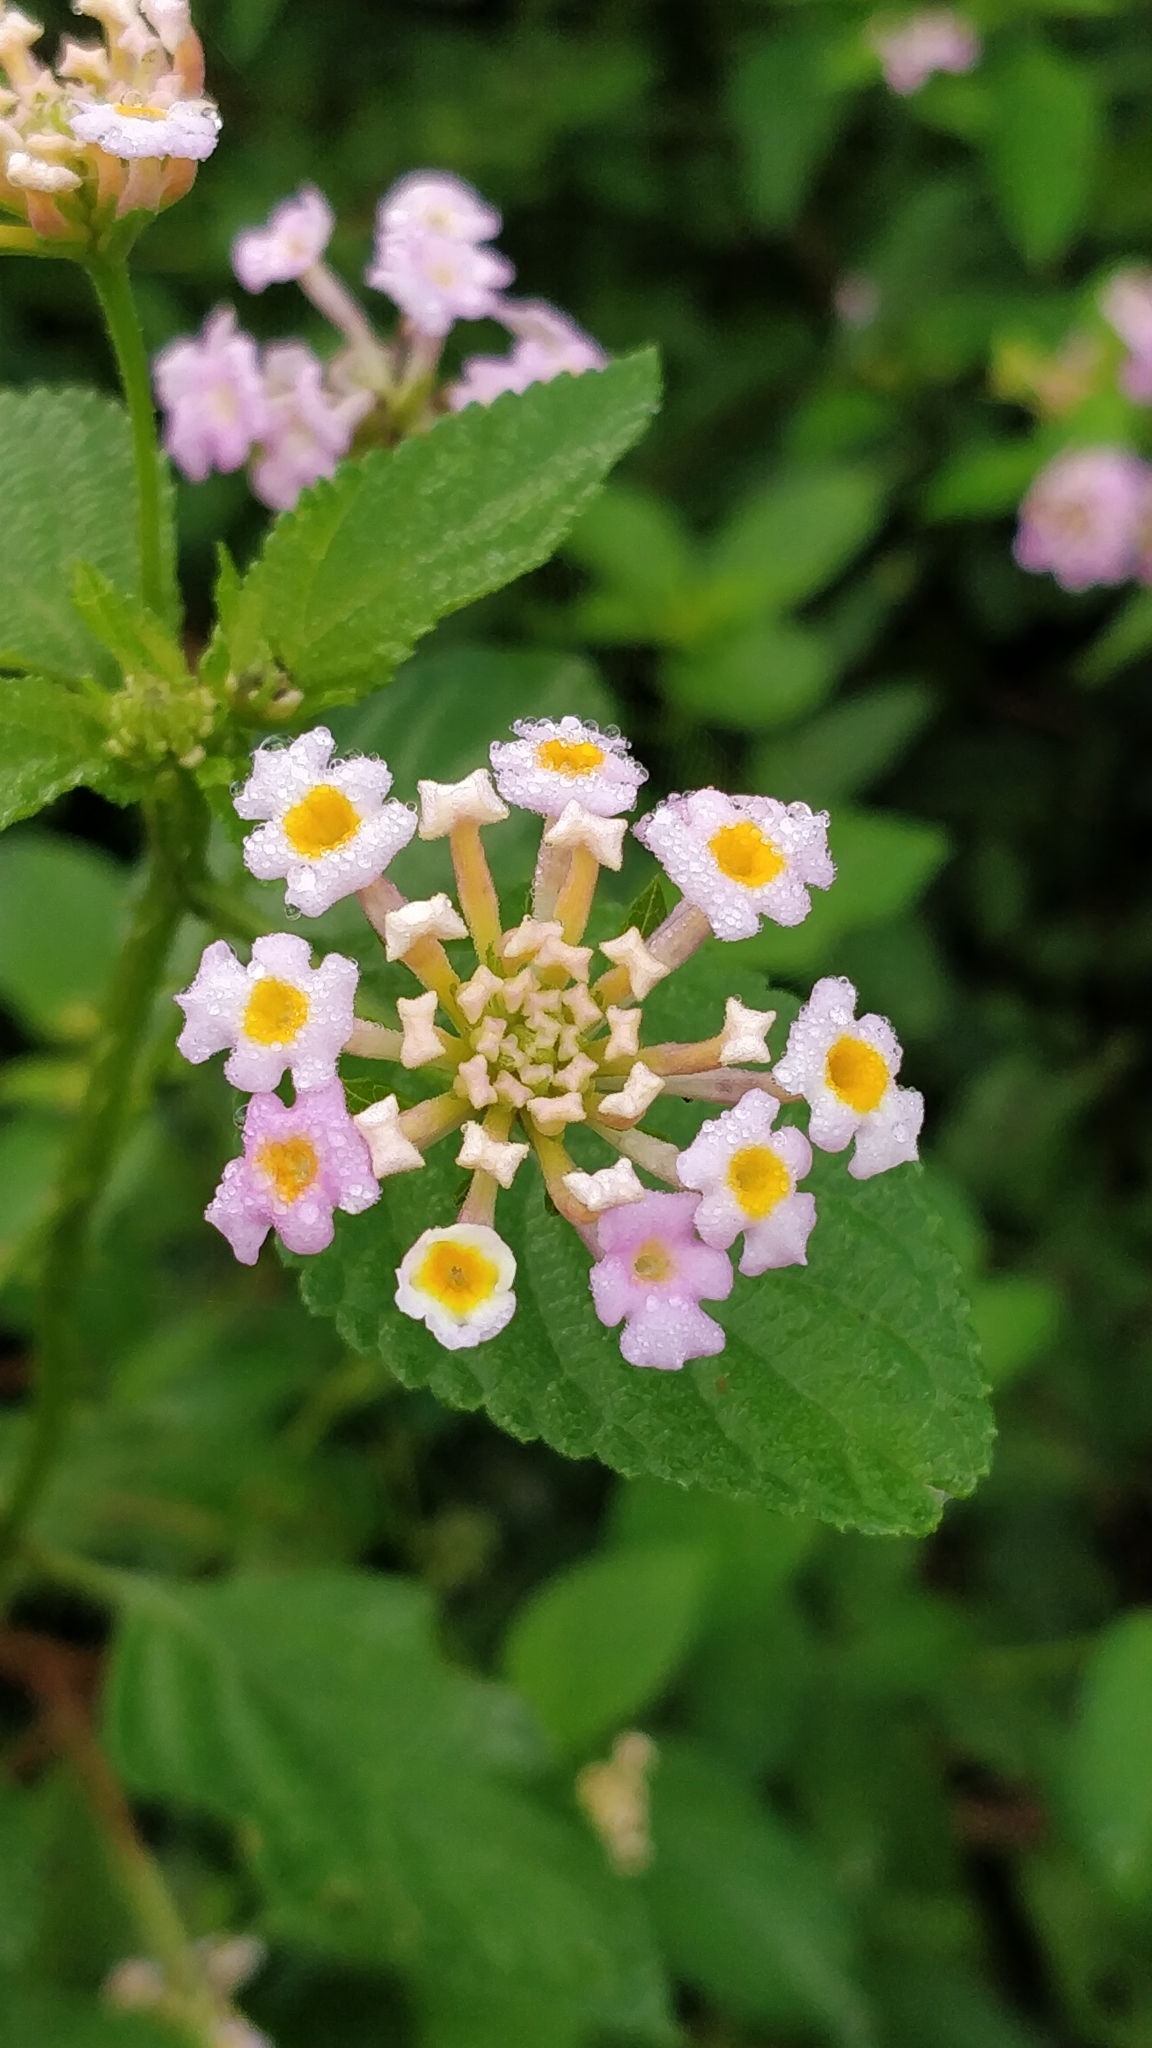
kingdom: Plantae
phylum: Tracheophyta
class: Magnoliopsida
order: Lamiales
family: Verbenaceae
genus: Lantana
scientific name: Lantana camara
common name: Lantana
